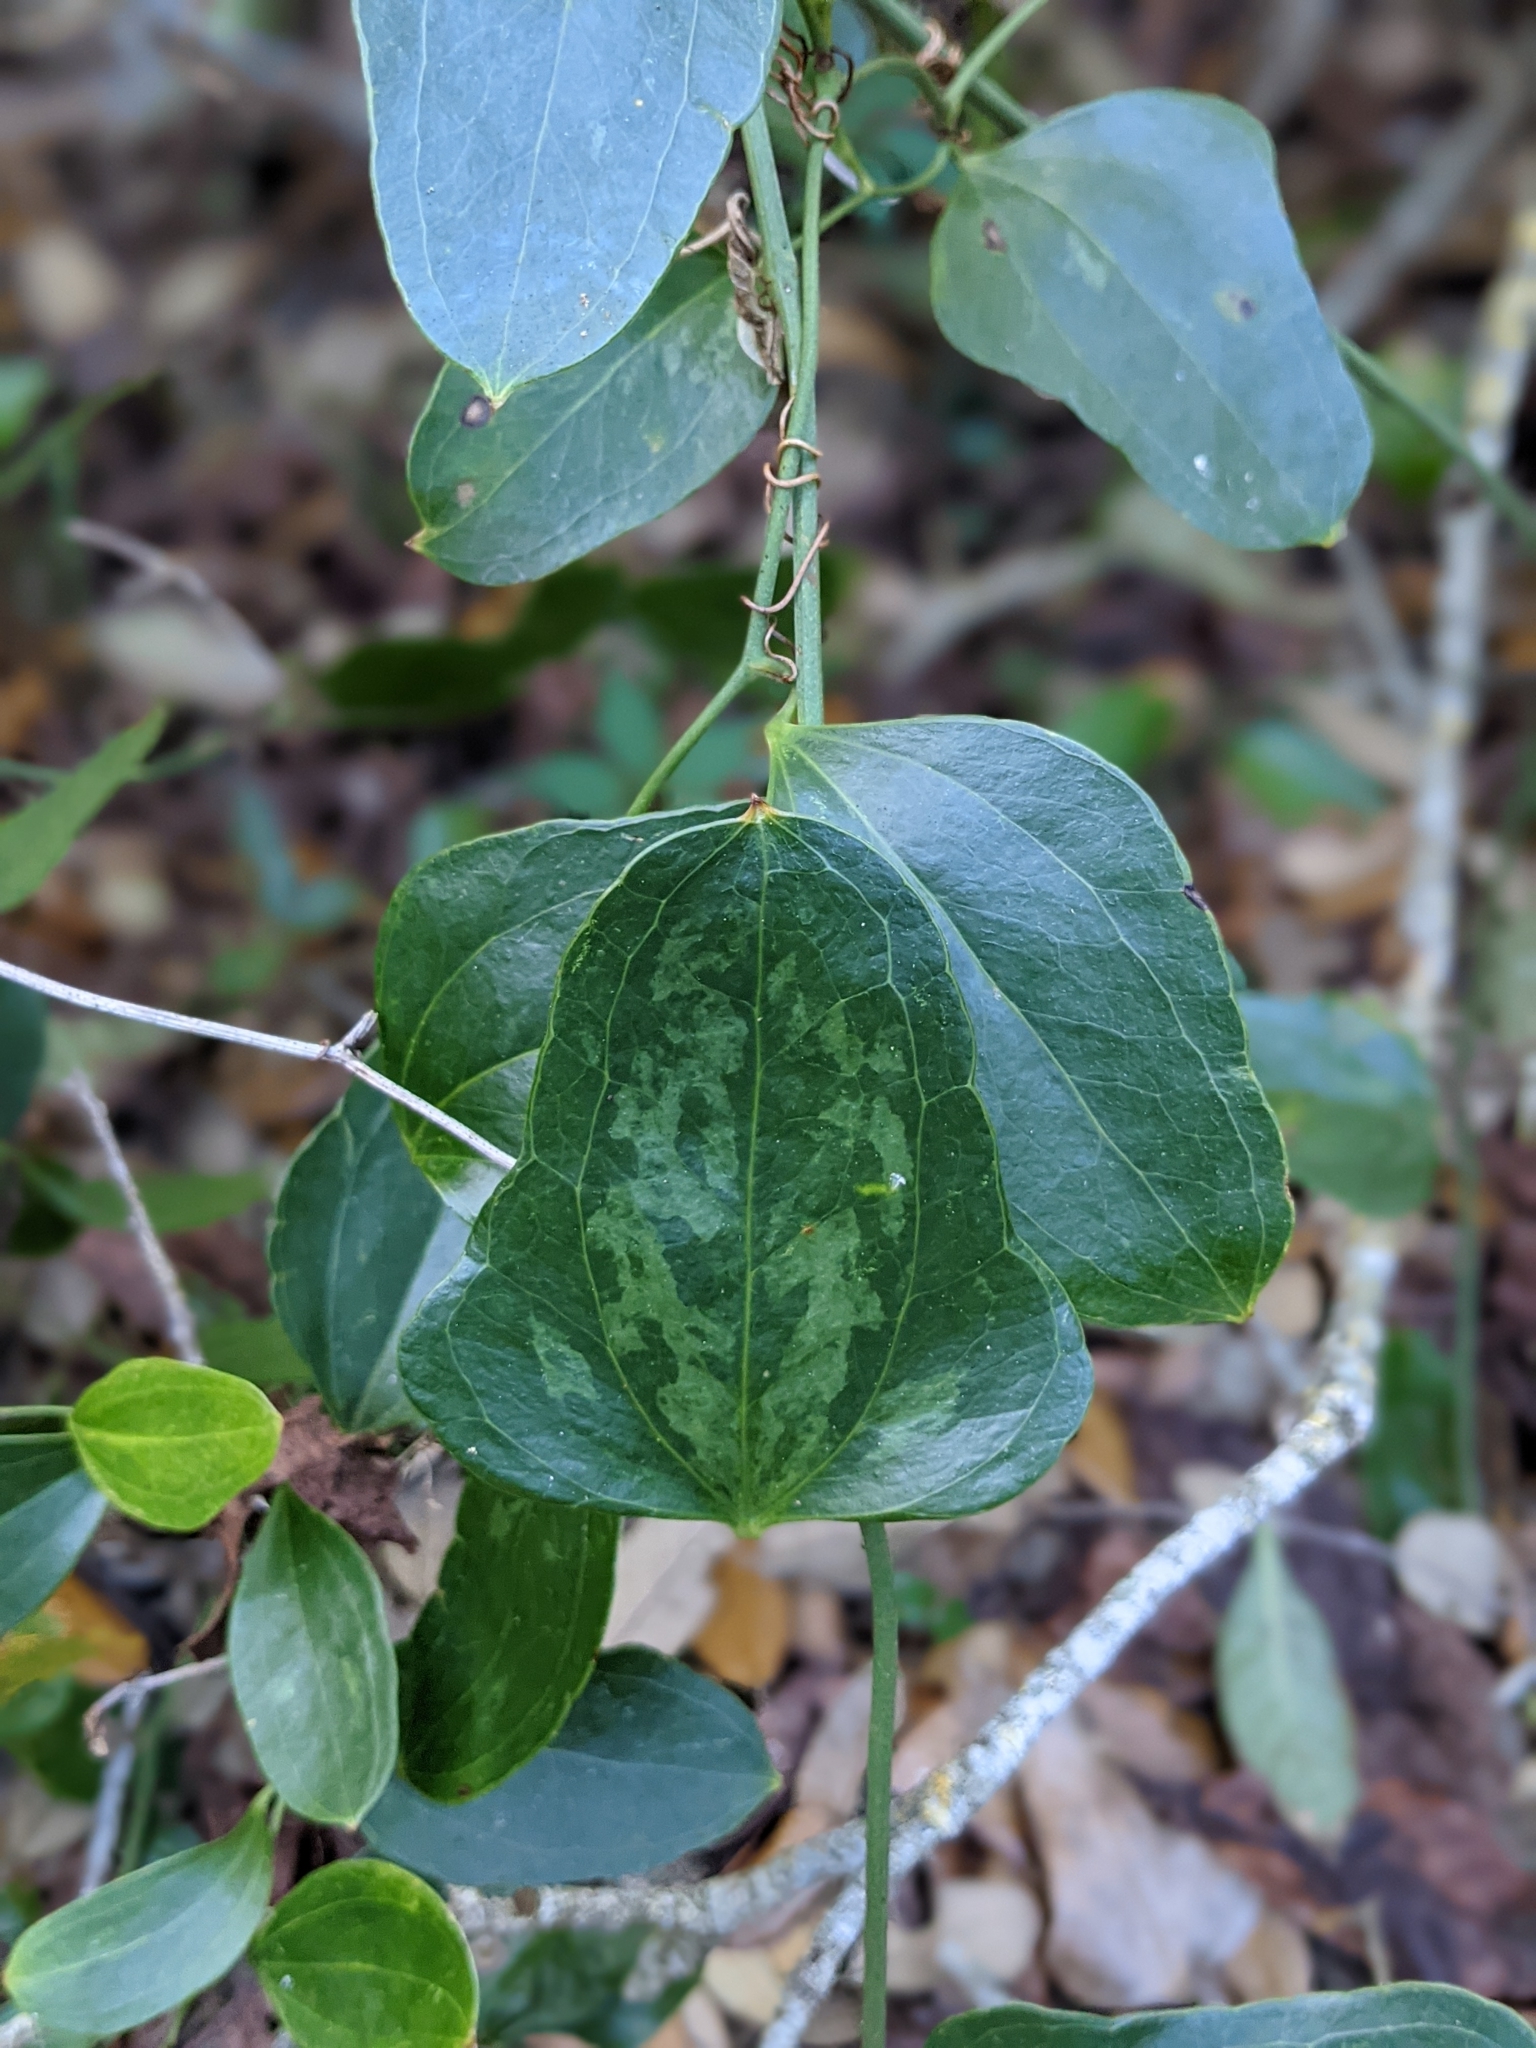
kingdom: Plantae
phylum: Tracheophyta
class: Liliopsida
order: Liliales
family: Smilacaceae
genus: Smilax
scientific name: Smilax auriculata
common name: Wild bamboo
